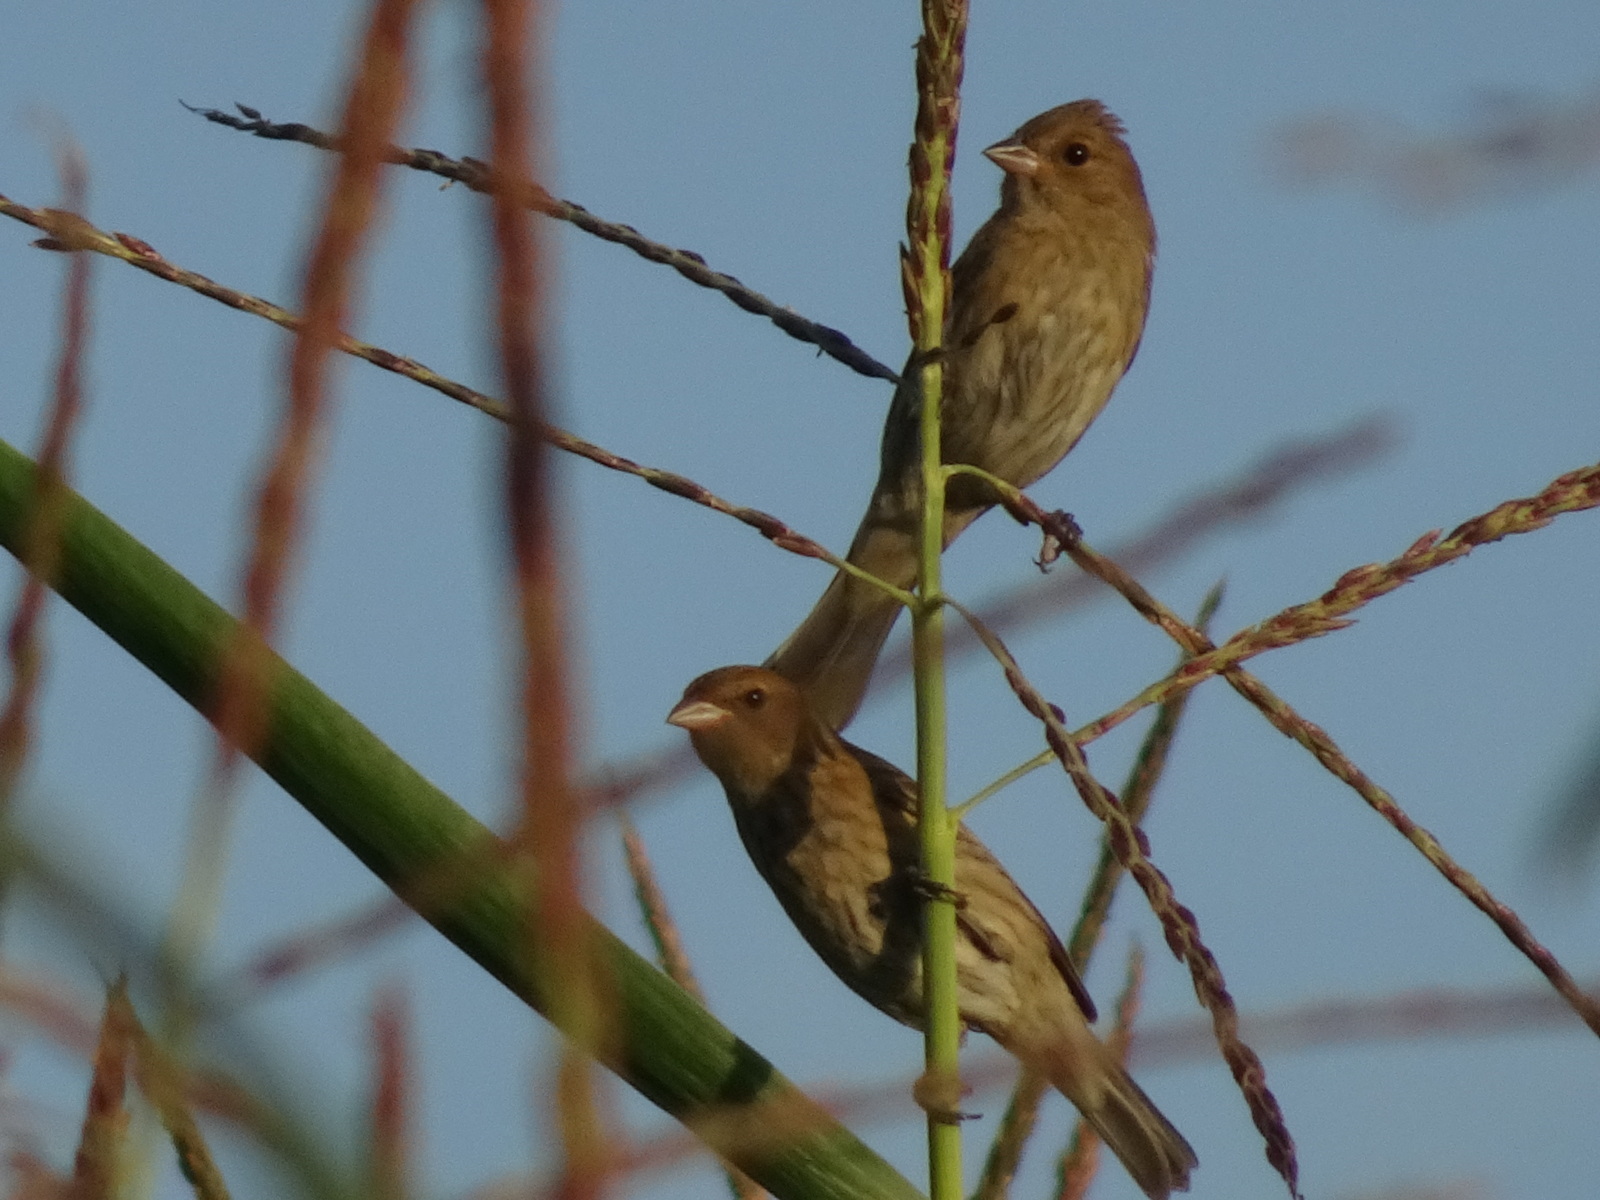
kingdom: Animalia
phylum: Chordata
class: Aves
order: Passeriformes
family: Cardinalidae
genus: Passerina
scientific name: Passerina cyanea
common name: Indigo bunting
